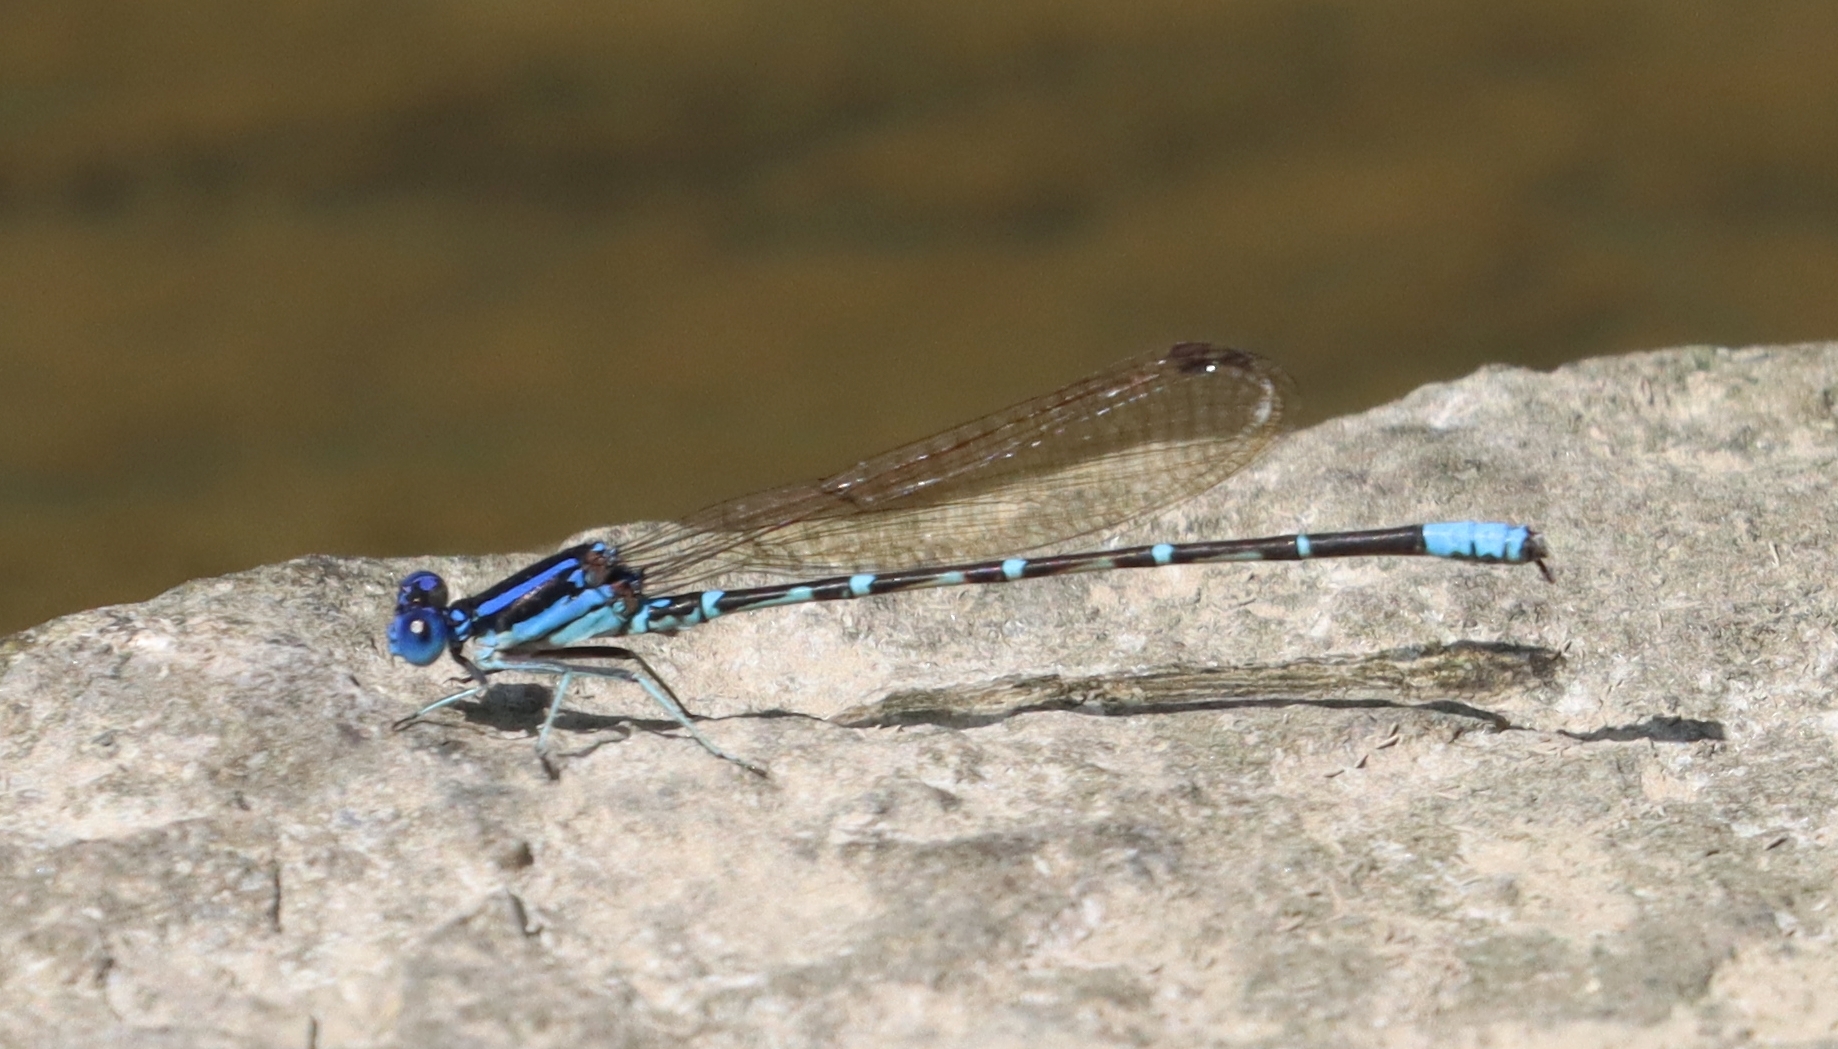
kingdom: Animalia
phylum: Arthropoda
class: Insecta
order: Odonata
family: Coenagrionidae
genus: Argia
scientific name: Argia sedula
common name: Blue-ringed dancer
